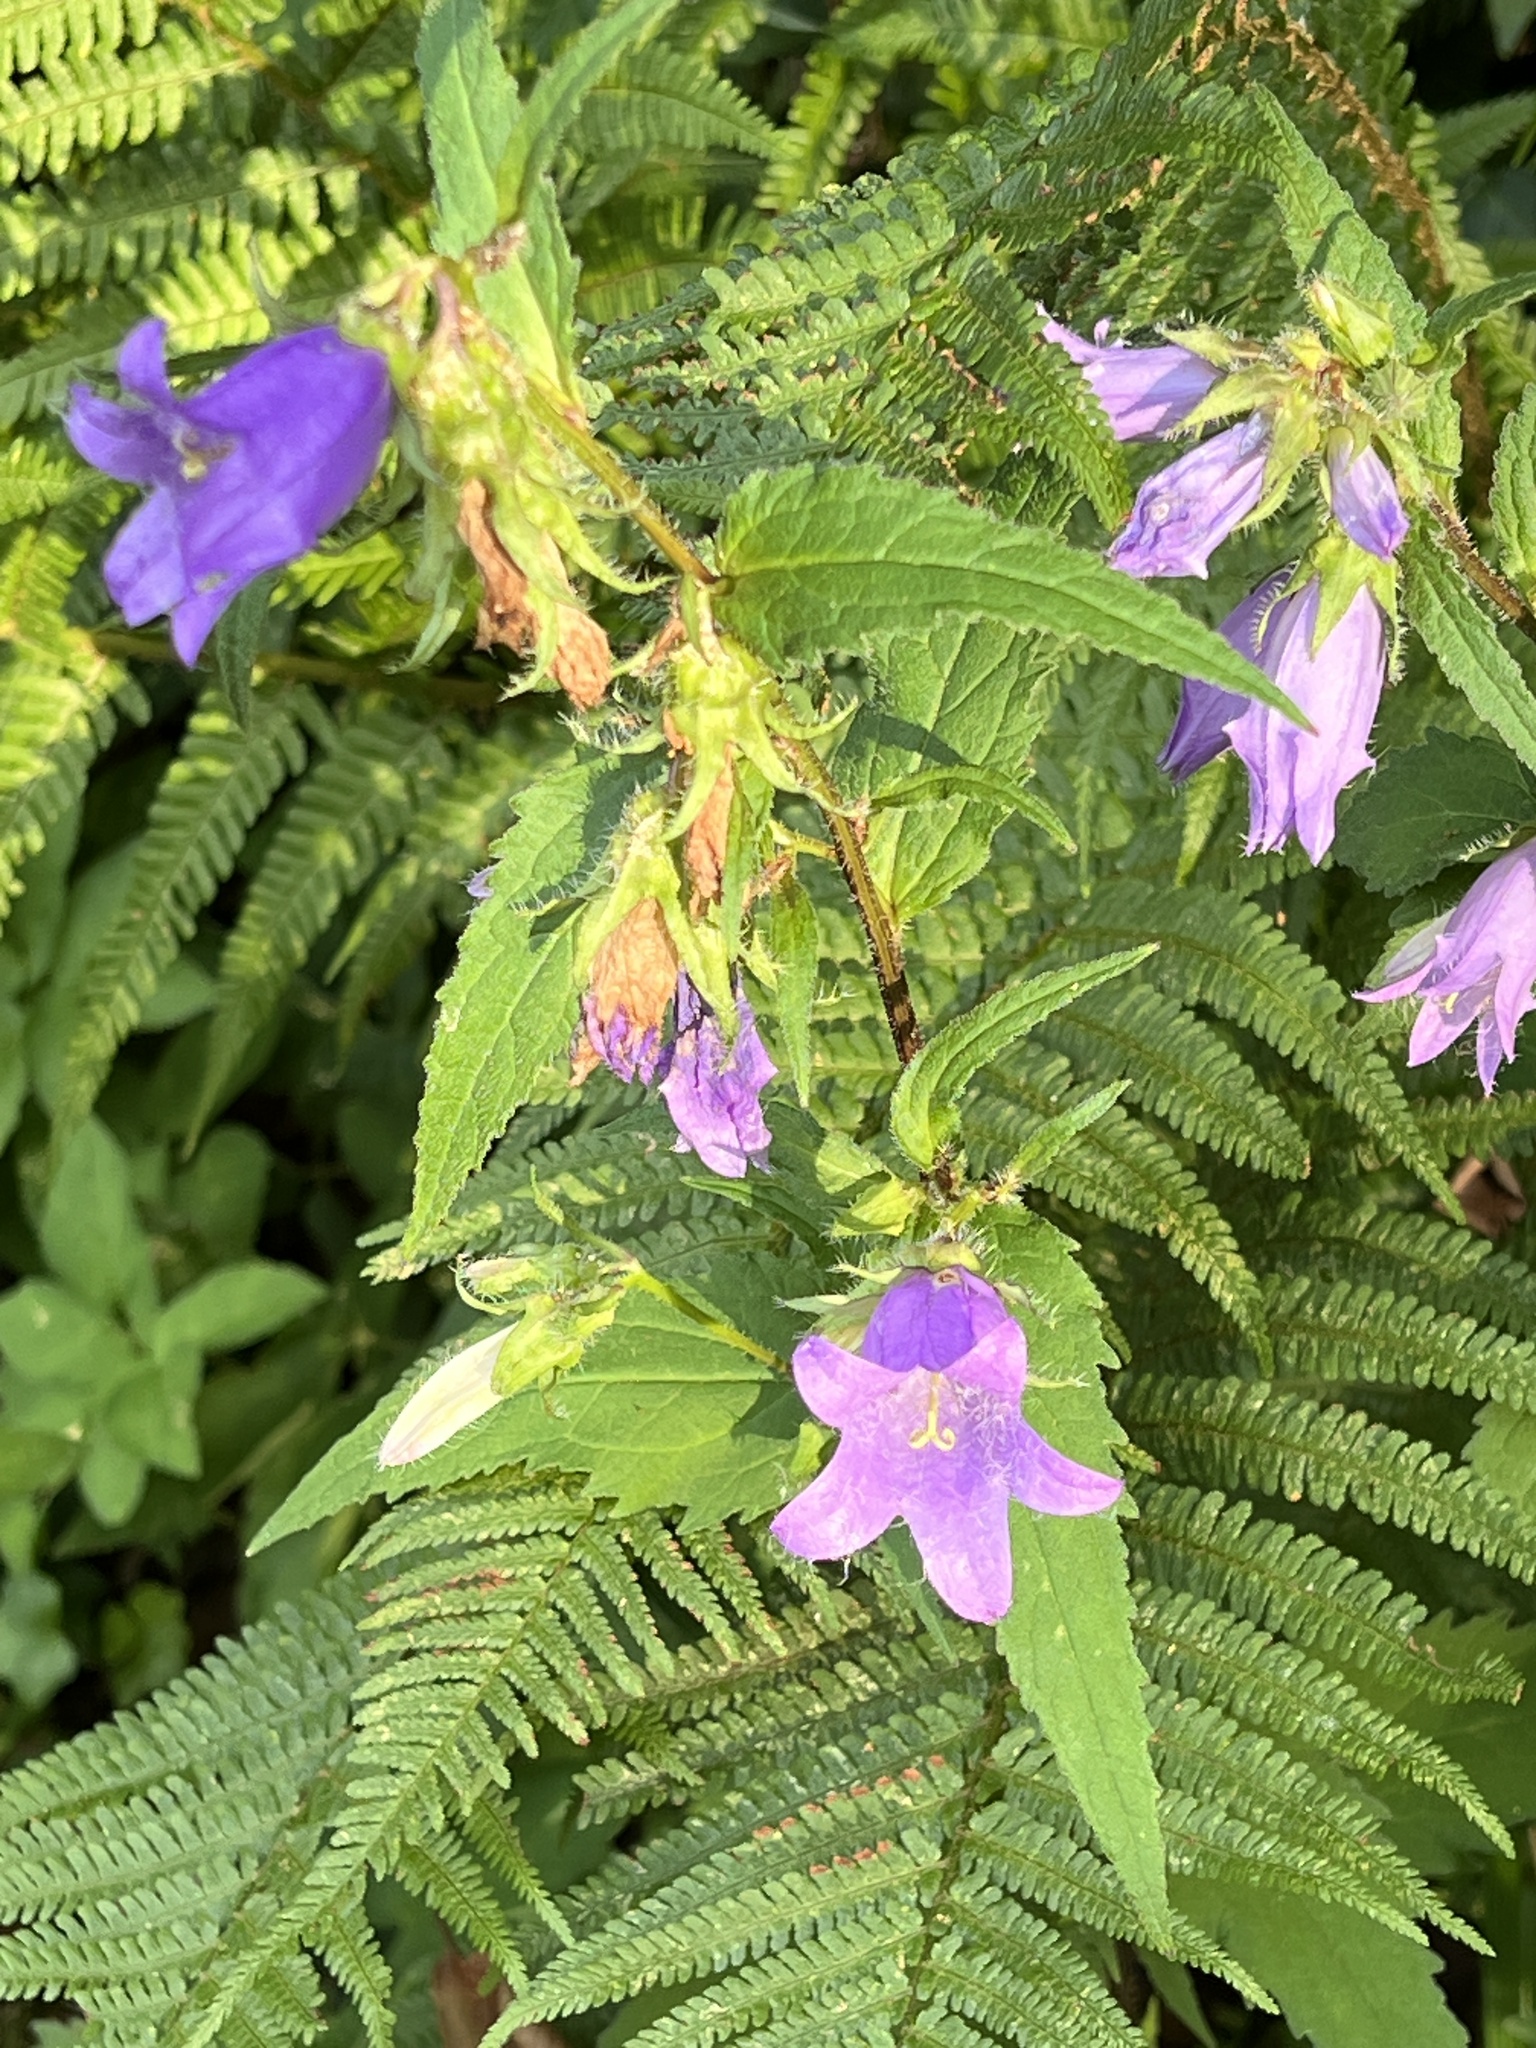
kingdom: Plantae
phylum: Tracheophyta
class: Magnoliopsida
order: Asterales
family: Campanulaceae
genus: Campanula
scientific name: Campanula trachelium
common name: Nettle-leaved bellflower
